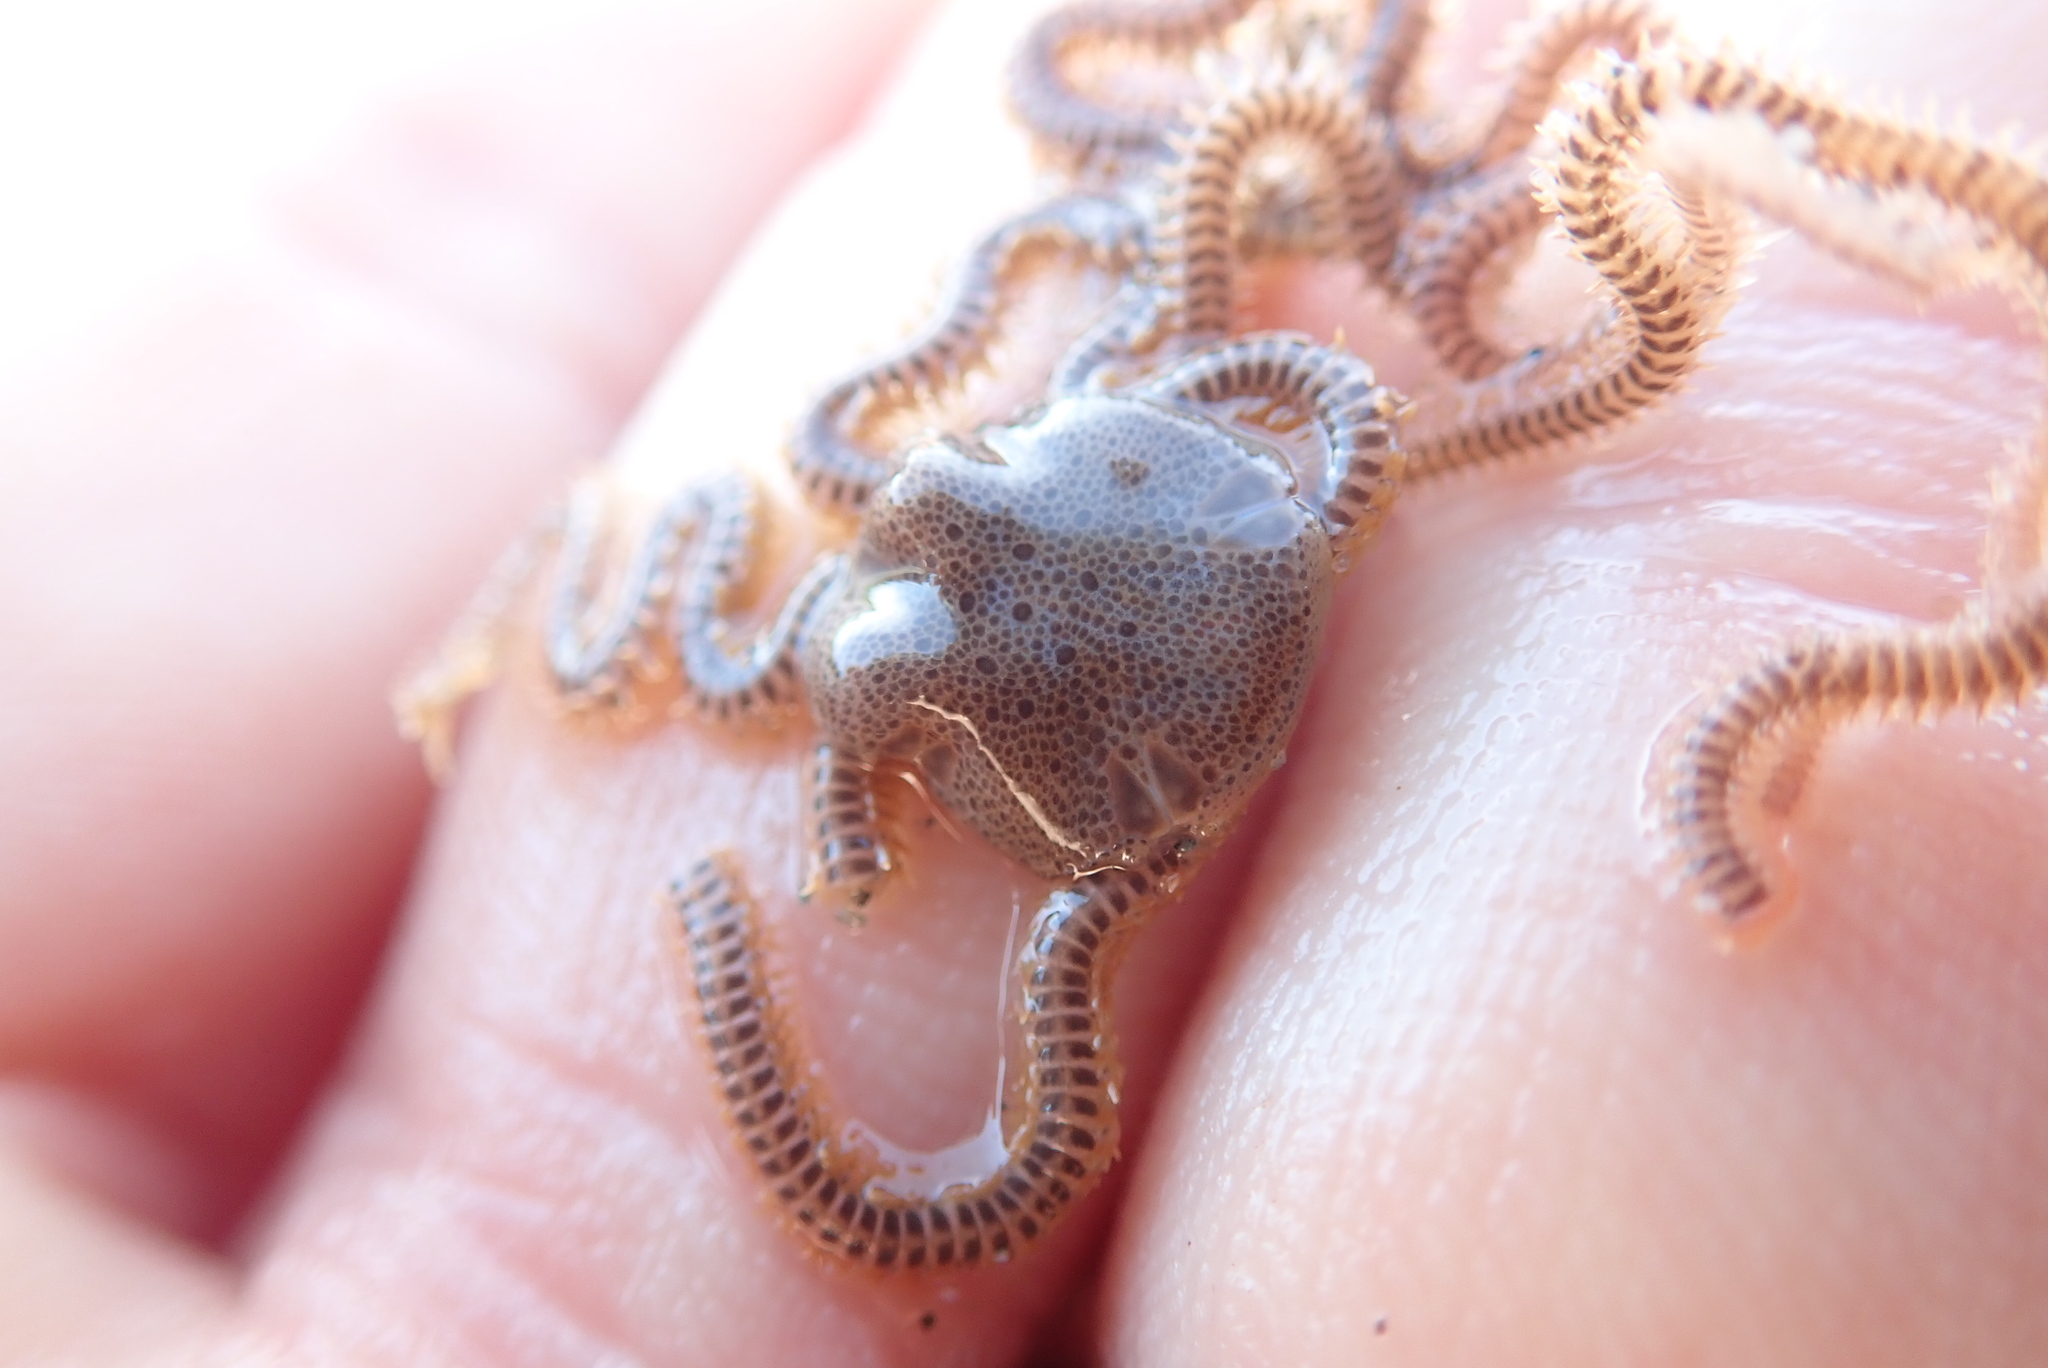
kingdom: Animalia
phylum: Echinodermata
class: Ophiuroidea
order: Amphilepidida
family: Amphiuridae
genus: Amphiodia
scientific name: Amphiodia occidentalis
